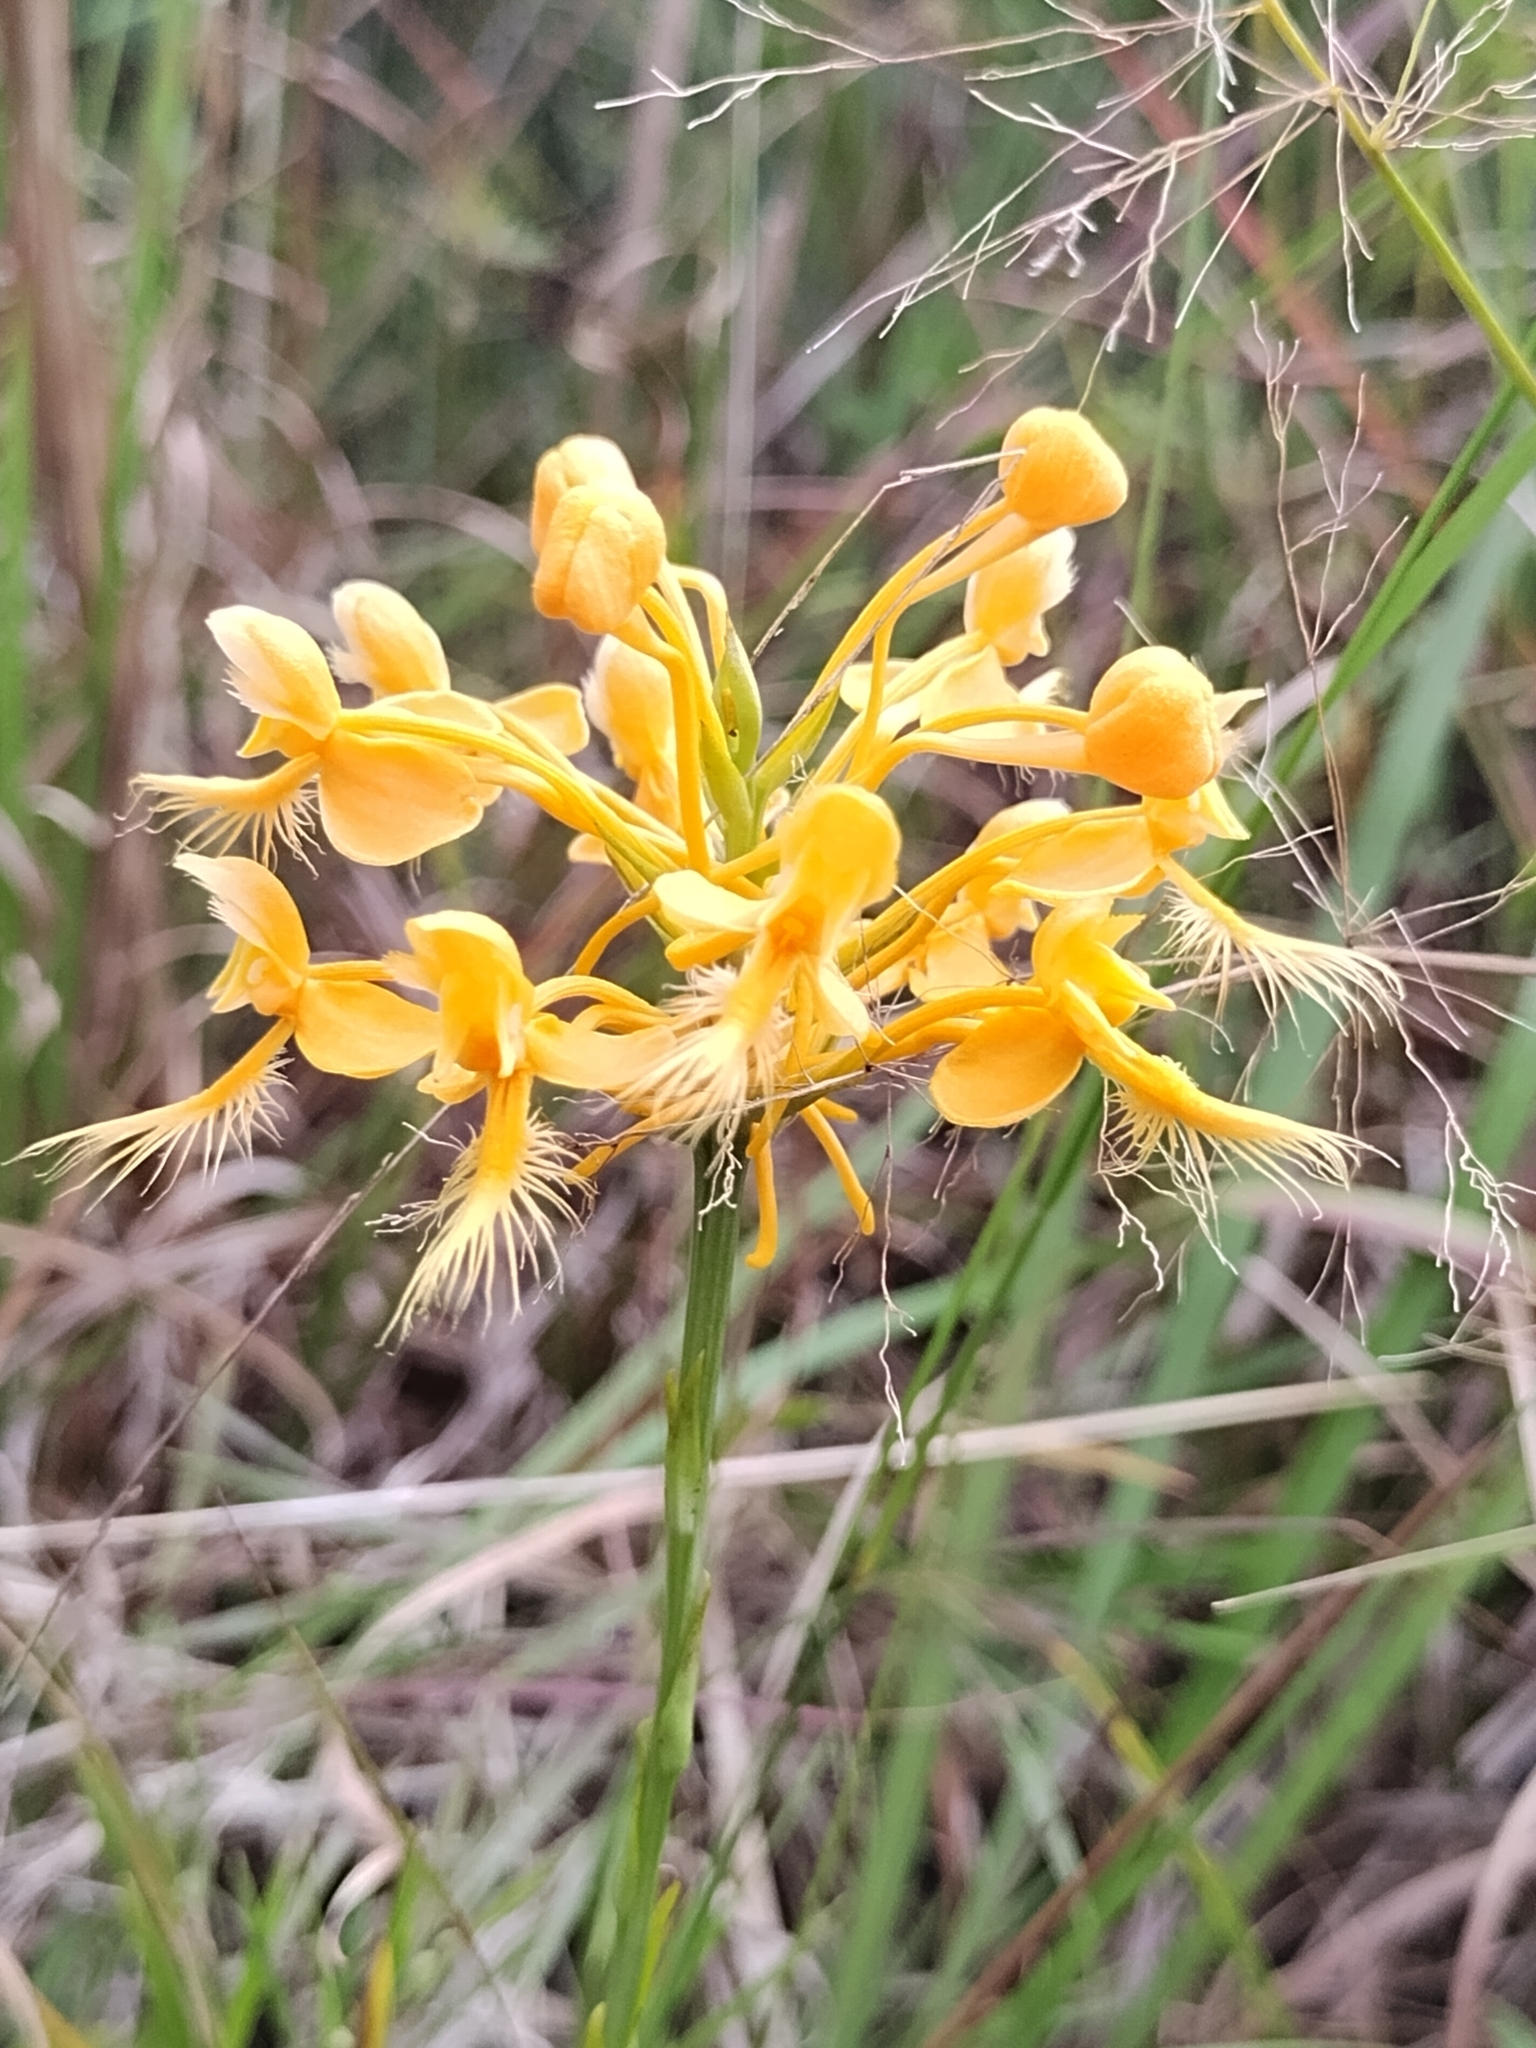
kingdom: Plantae
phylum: Tracheophyta
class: Liliopsida
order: Asparagales
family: Orchidaceae
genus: Platanthera
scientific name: Platanthera ciliaris
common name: Yellow fringed orchid
